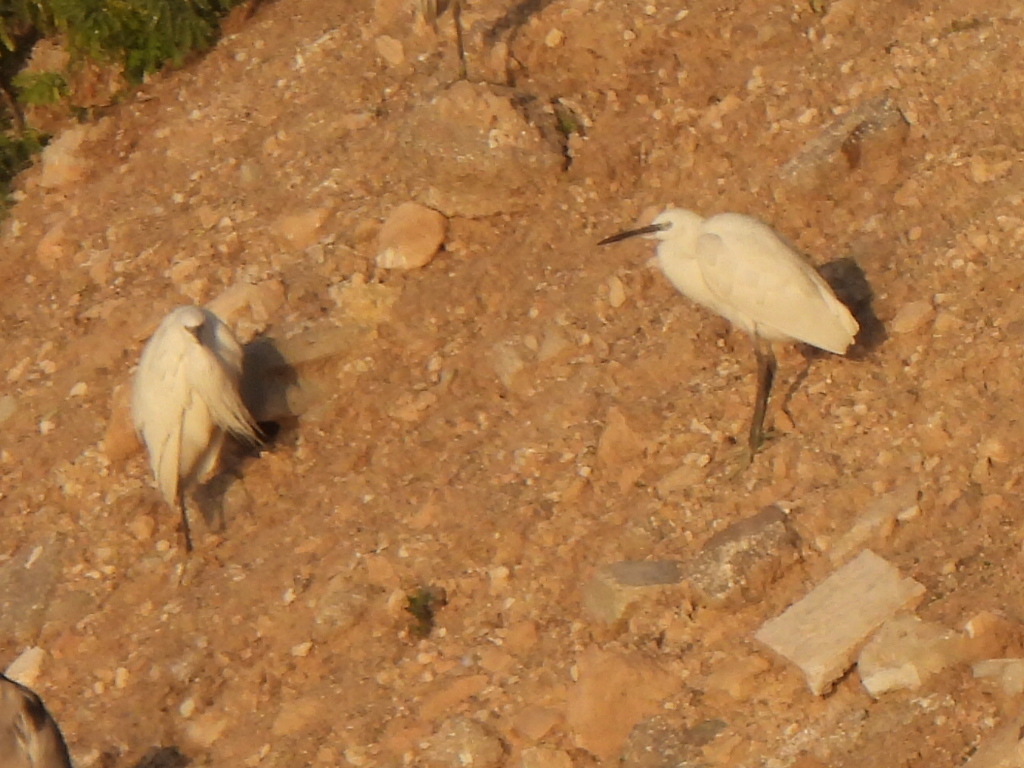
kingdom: Animalia
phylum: Chordata
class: Aves
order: Pelecaniformes
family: Ardeidae
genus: Egretta
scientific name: Egretta garzetta
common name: Little egret
